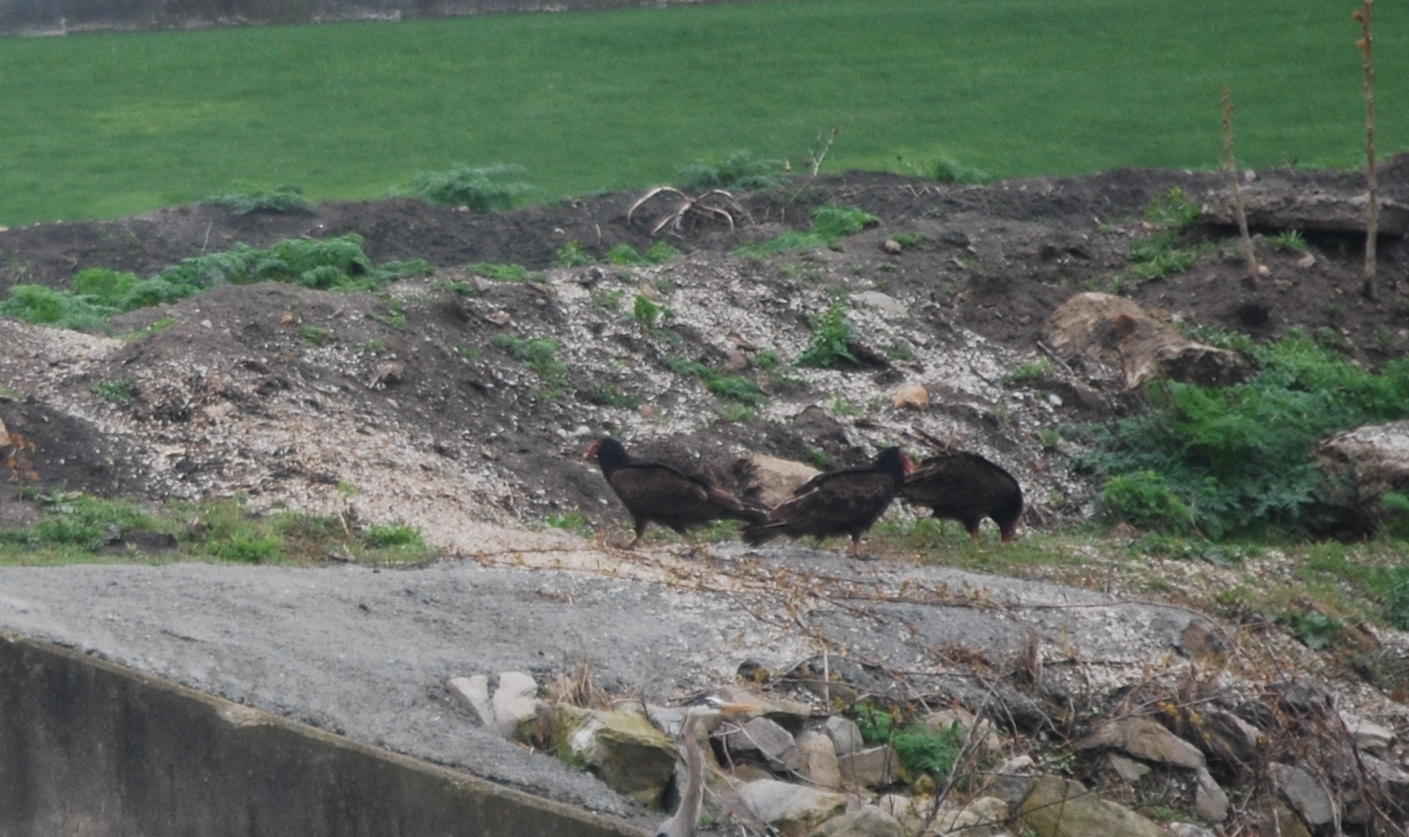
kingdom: Animalia
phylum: Chordata
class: Aves
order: Accipitriformes
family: Cathartidae
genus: Cathartes
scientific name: Cathartes aura
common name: Turkey vulture
